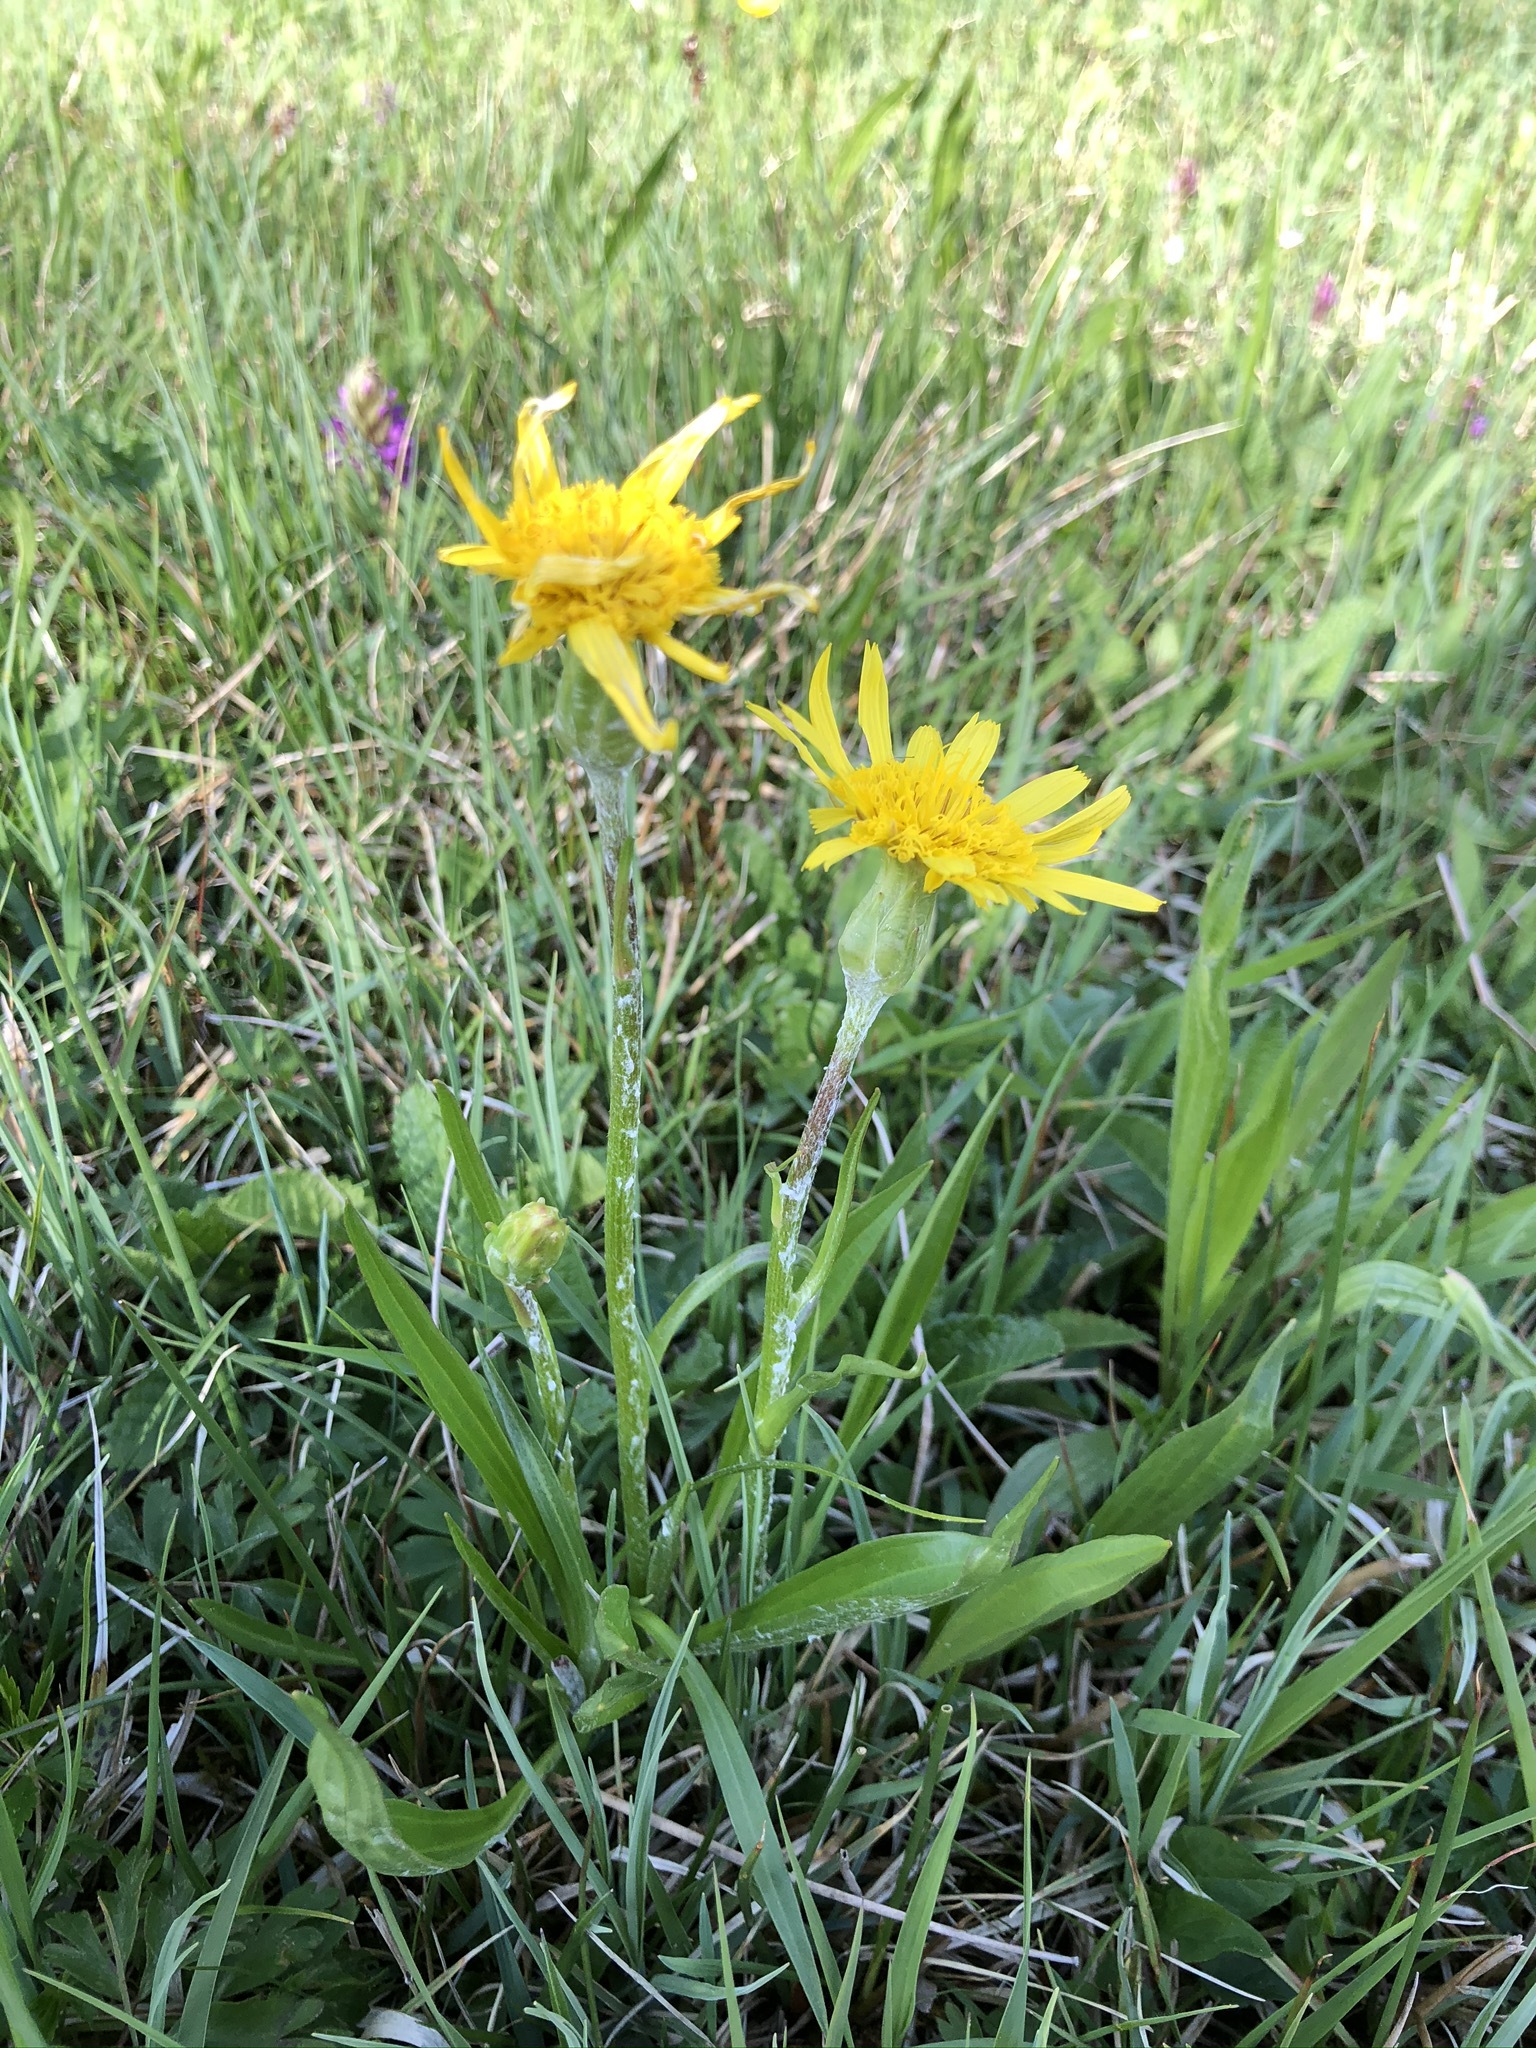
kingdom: Plantae
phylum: Tracheophyta
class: Magnoliopsida
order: Asterales
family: Asteraceae
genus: Scorzonera
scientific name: Scorzonera humilis
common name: Viper's-grass
